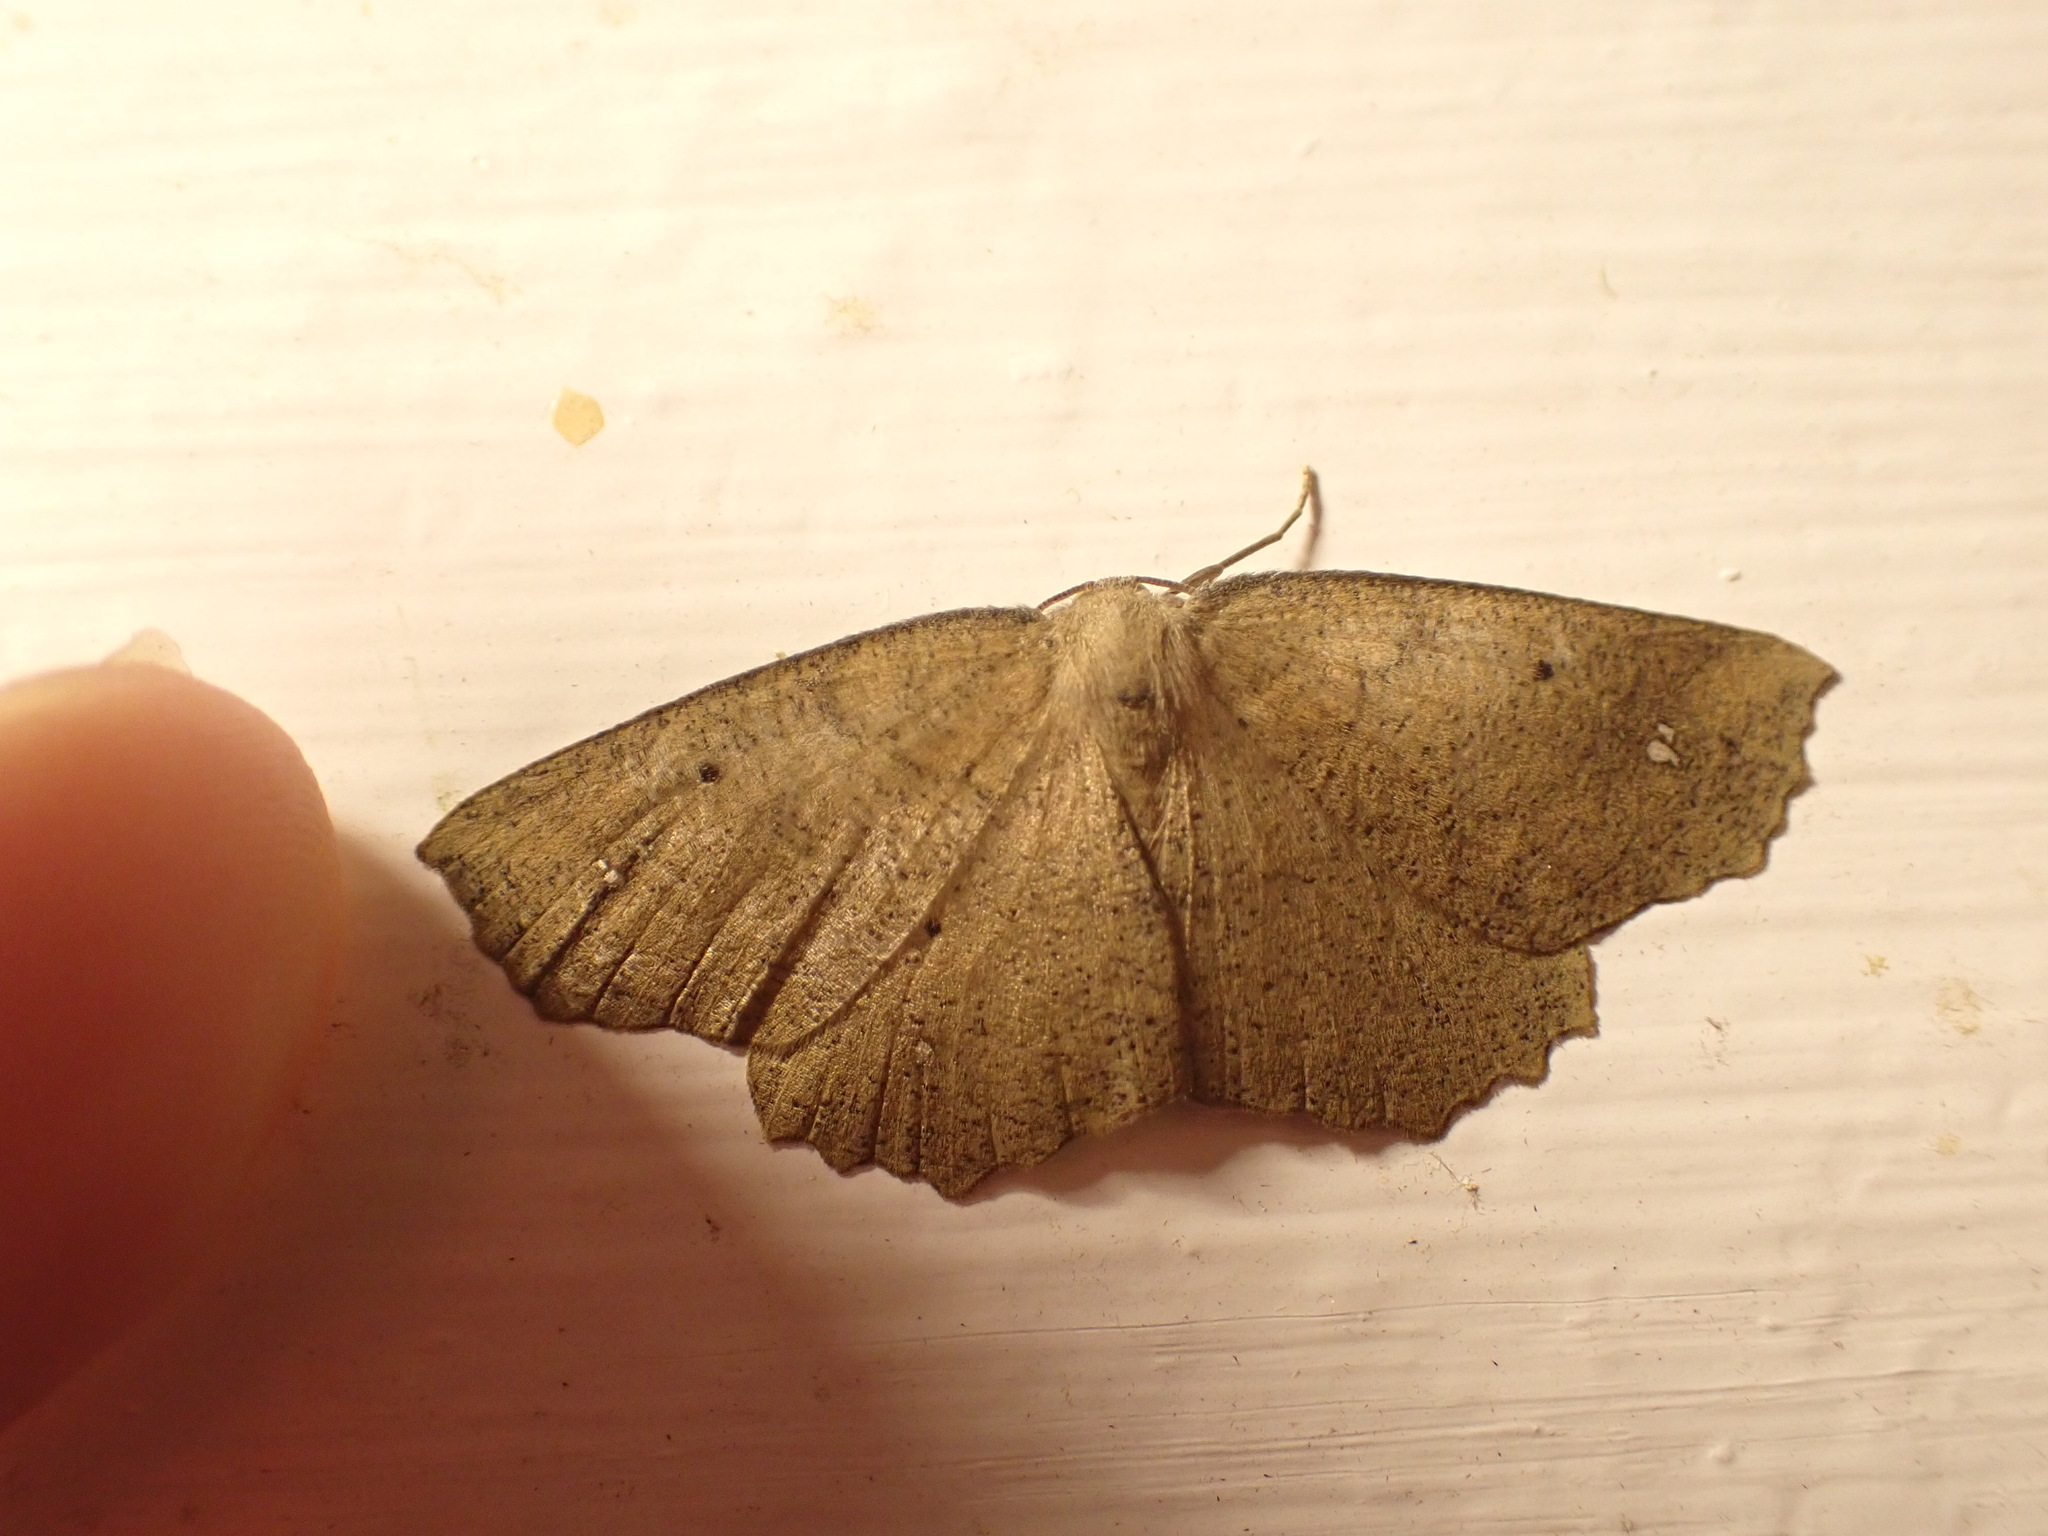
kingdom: Animalia
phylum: Arthropoda
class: Insecta
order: Lepidoptera
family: Geometridae
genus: Xyridacma
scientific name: Xyridacma ustaria
